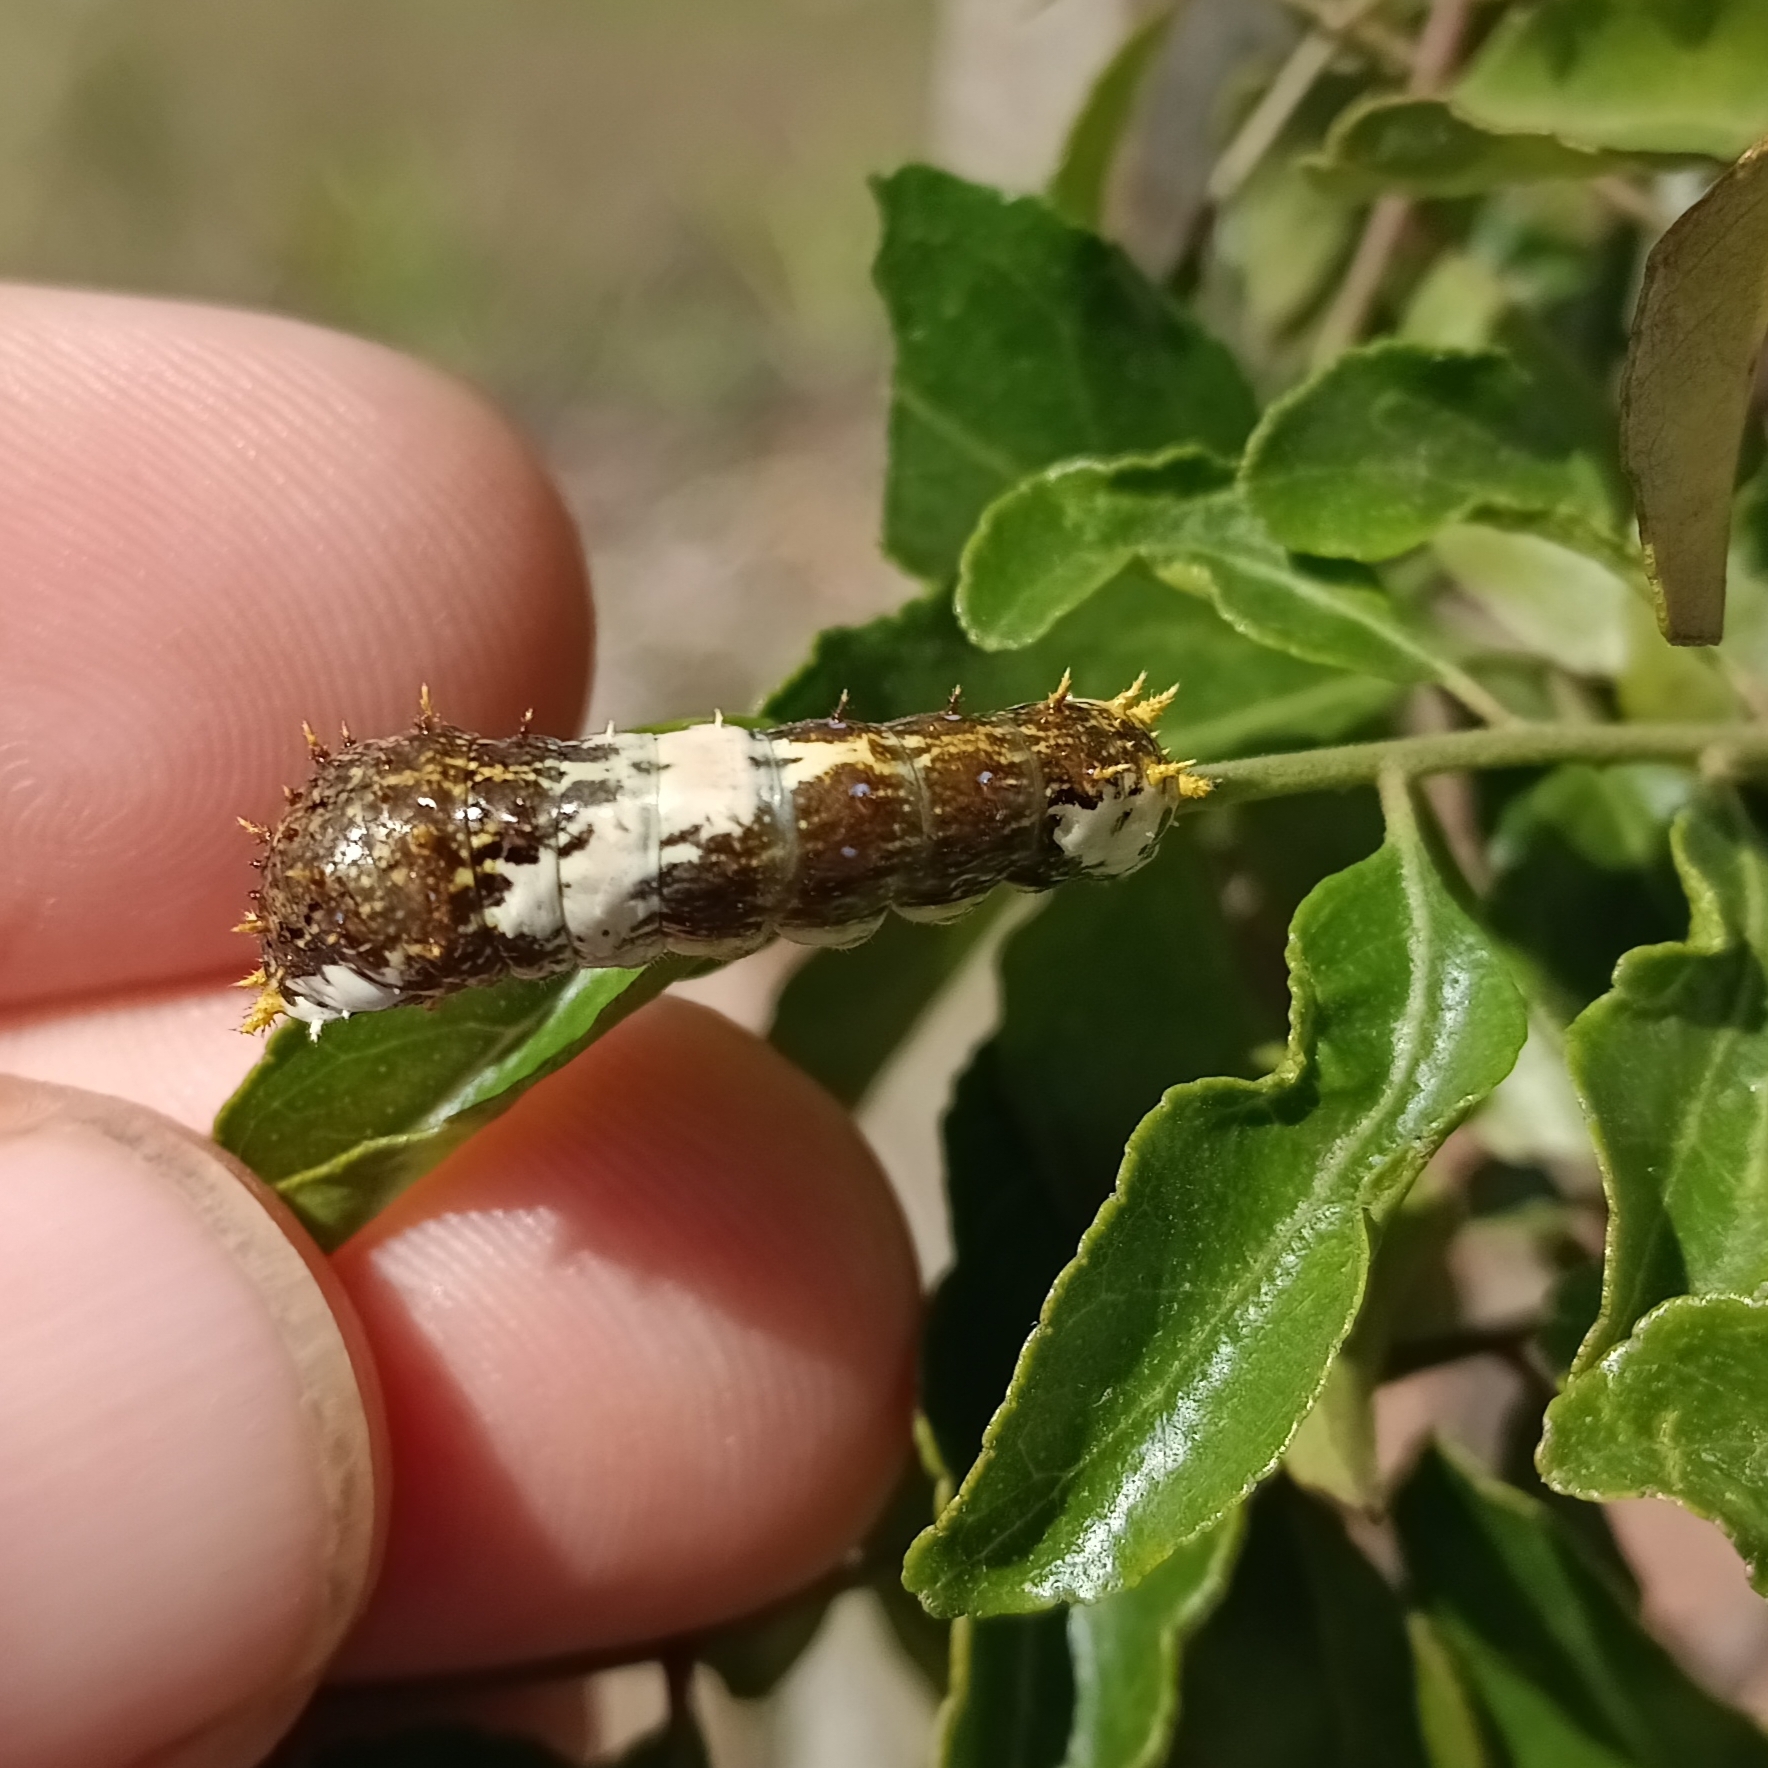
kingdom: Animalia
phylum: Arthropoda
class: Insecta
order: Lepidoptera
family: Papilionidae
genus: Papilio
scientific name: Papilio demodocus
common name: Christmas butterfly
